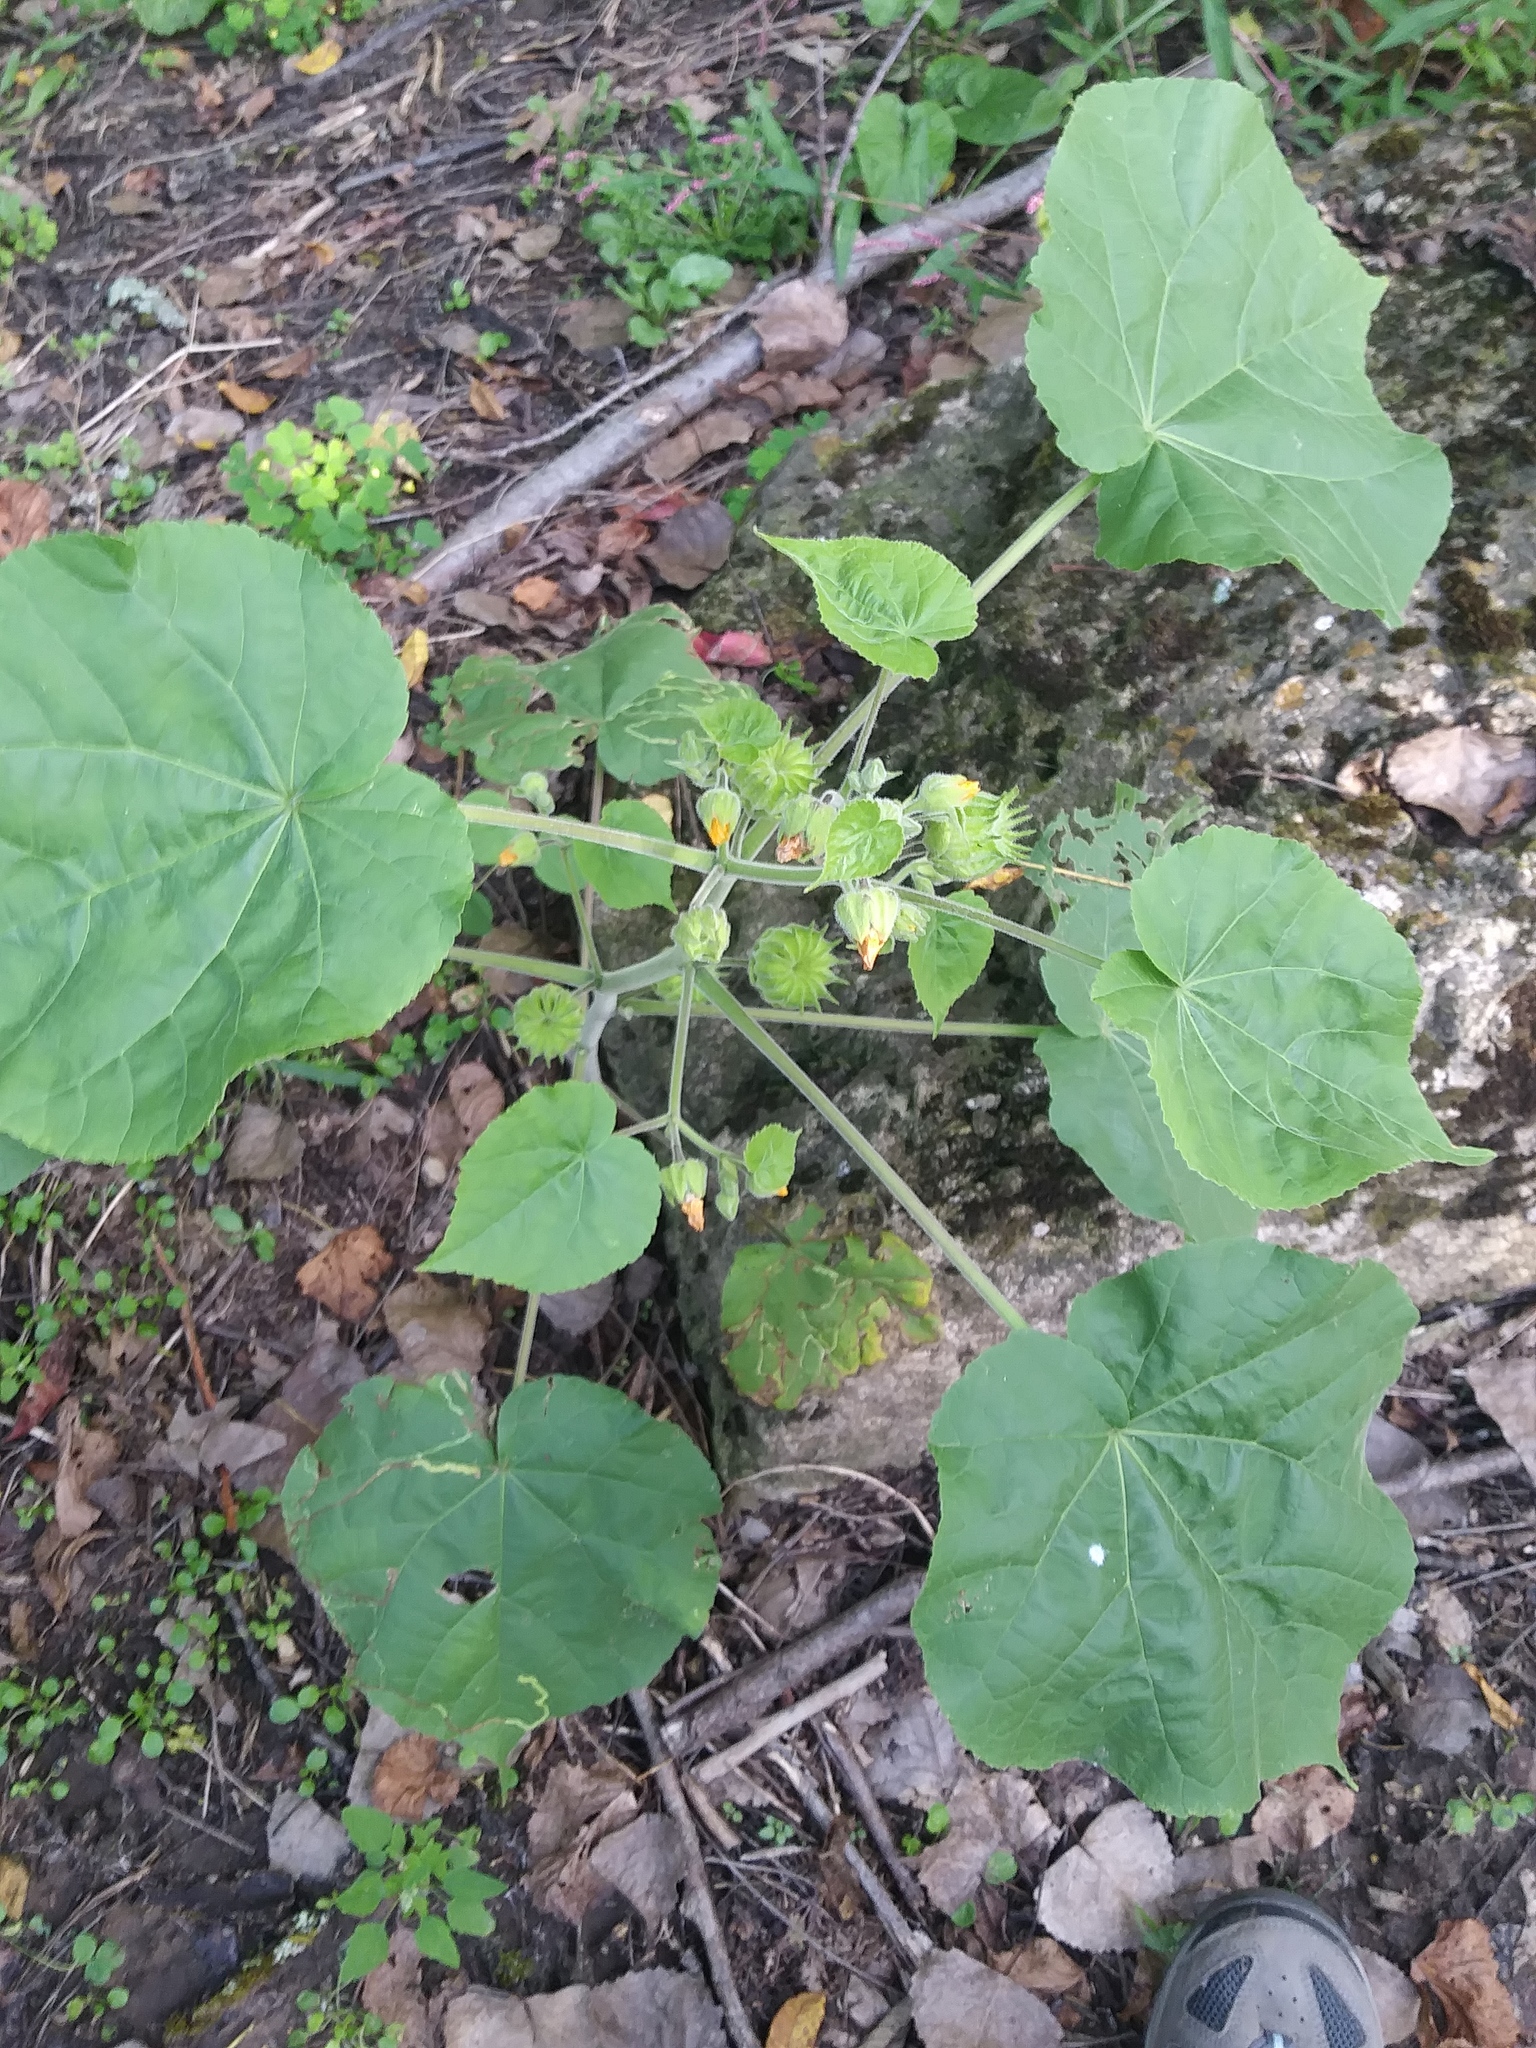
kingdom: Plantae
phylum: Tracheophyta
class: Magnoliopsida
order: Malvales
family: Malvaceae
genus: Abutilon
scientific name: Abutilon theophrasti
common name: Velvetleaf
